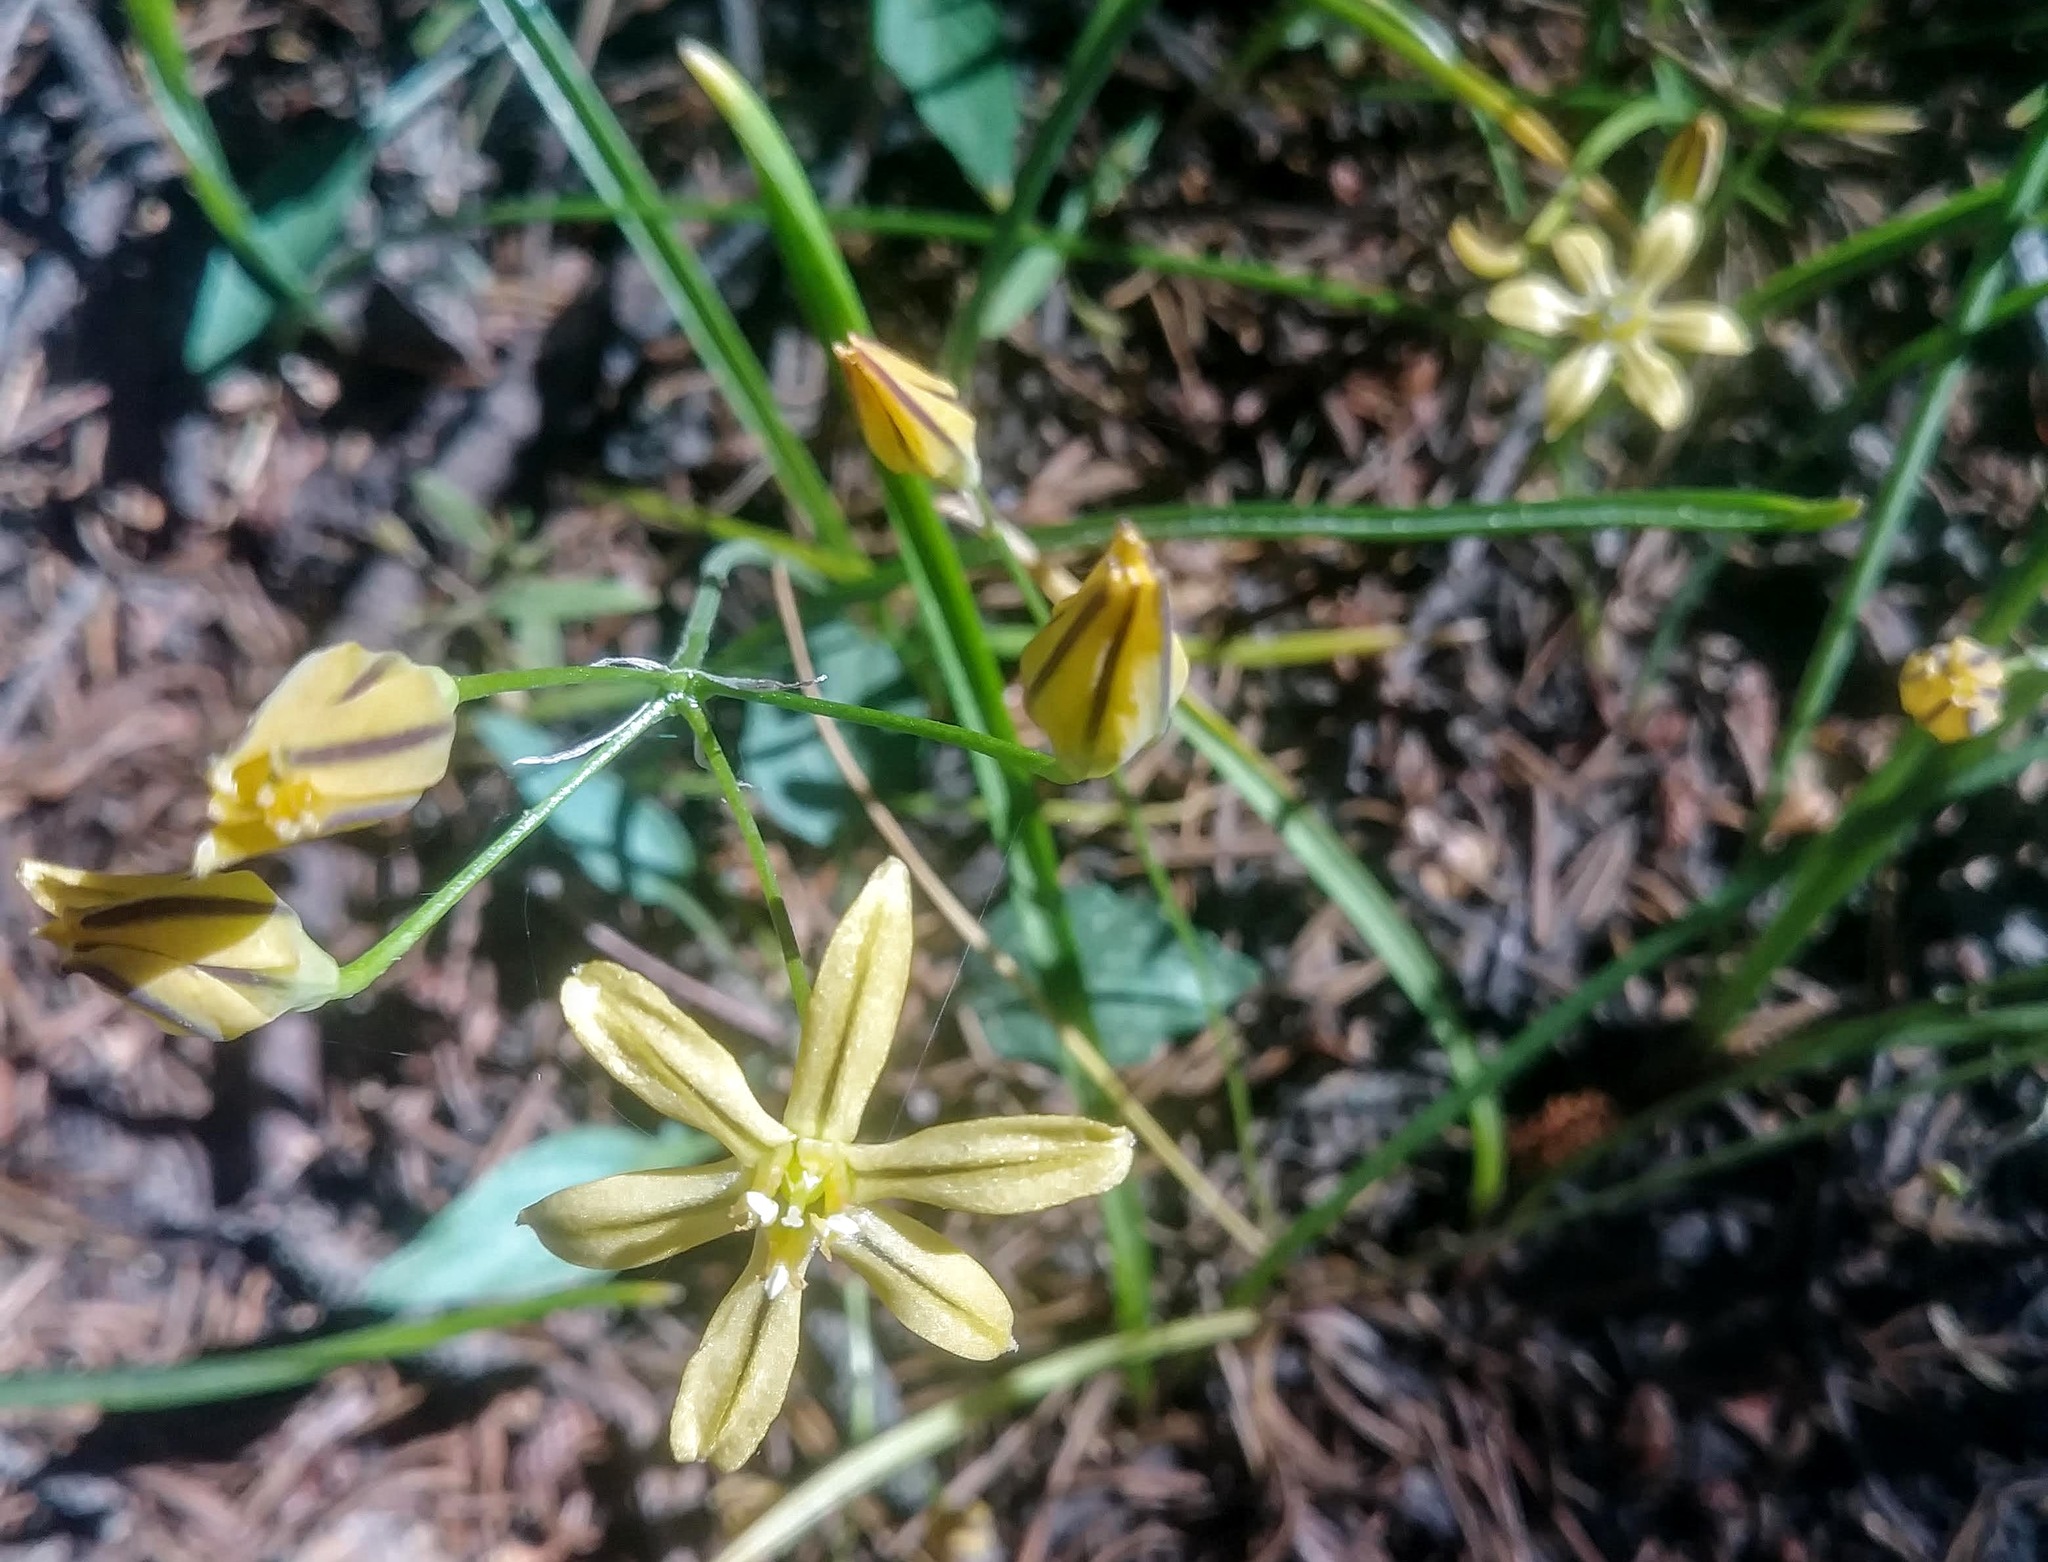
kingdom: Plantae
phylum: Tracheophyta
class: Liliopsida
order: Asparagales
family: Asparagaceae
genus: Triteleia
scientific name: Triteleia ixioides
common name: Yellow-brodiaea
